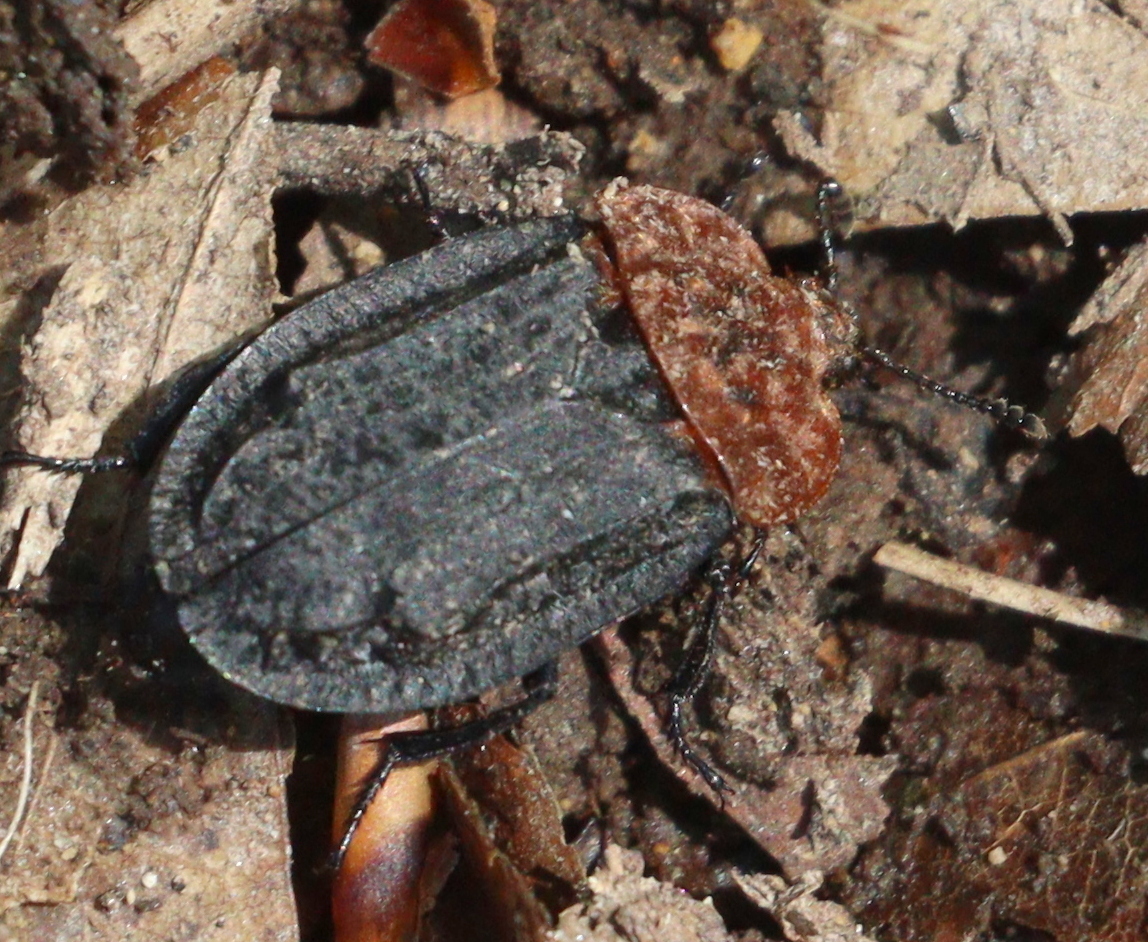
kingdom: Animalia
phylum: Arthropoda
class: Insecta
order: Coleoptera
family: Staphylinidae
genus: Oiceoptoma
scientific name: Oiceoptoma thoracicum
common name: Red-breasted carrion beetle
